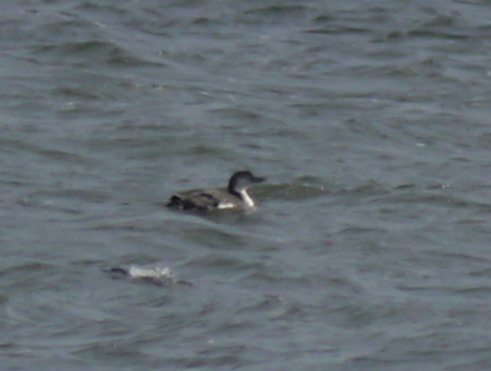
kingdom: Animalia
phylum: Chordata
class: Aves
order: Gaviiformes
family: Gaviidae
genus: Gavia
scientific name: Gavia immer
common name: Common loon
